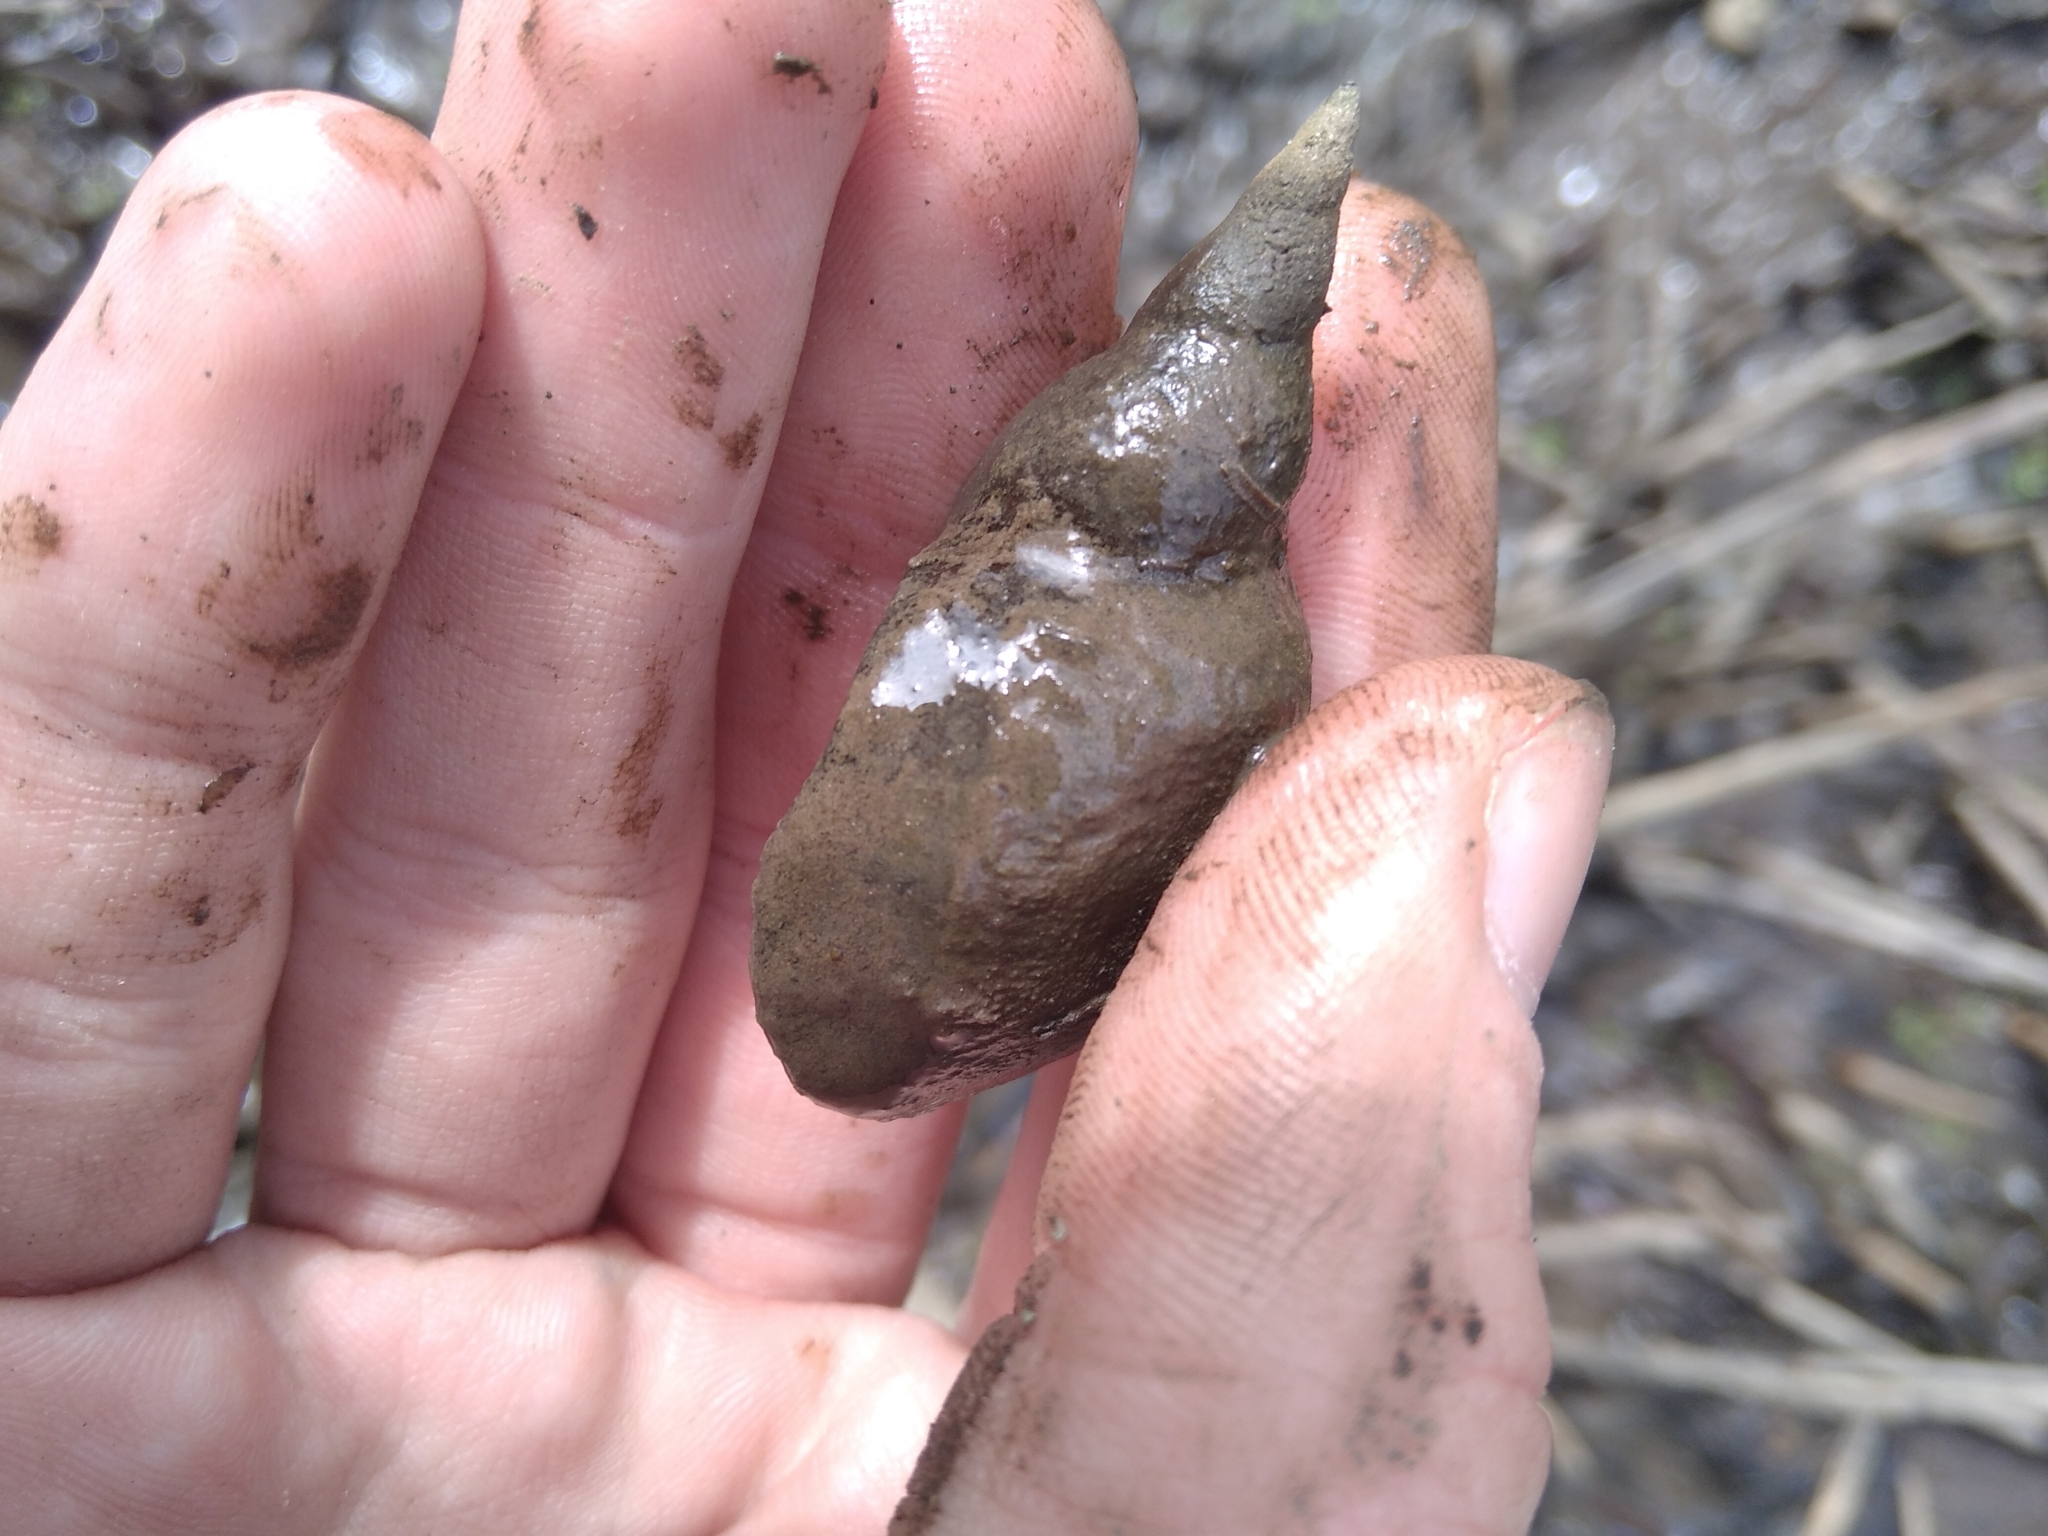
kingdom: Animalia
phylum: Mollusca
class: Gastropoda
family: Lymnaeidae
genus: Lymnaea
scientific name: Lymnaea stagnalis
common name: Great pond snail
